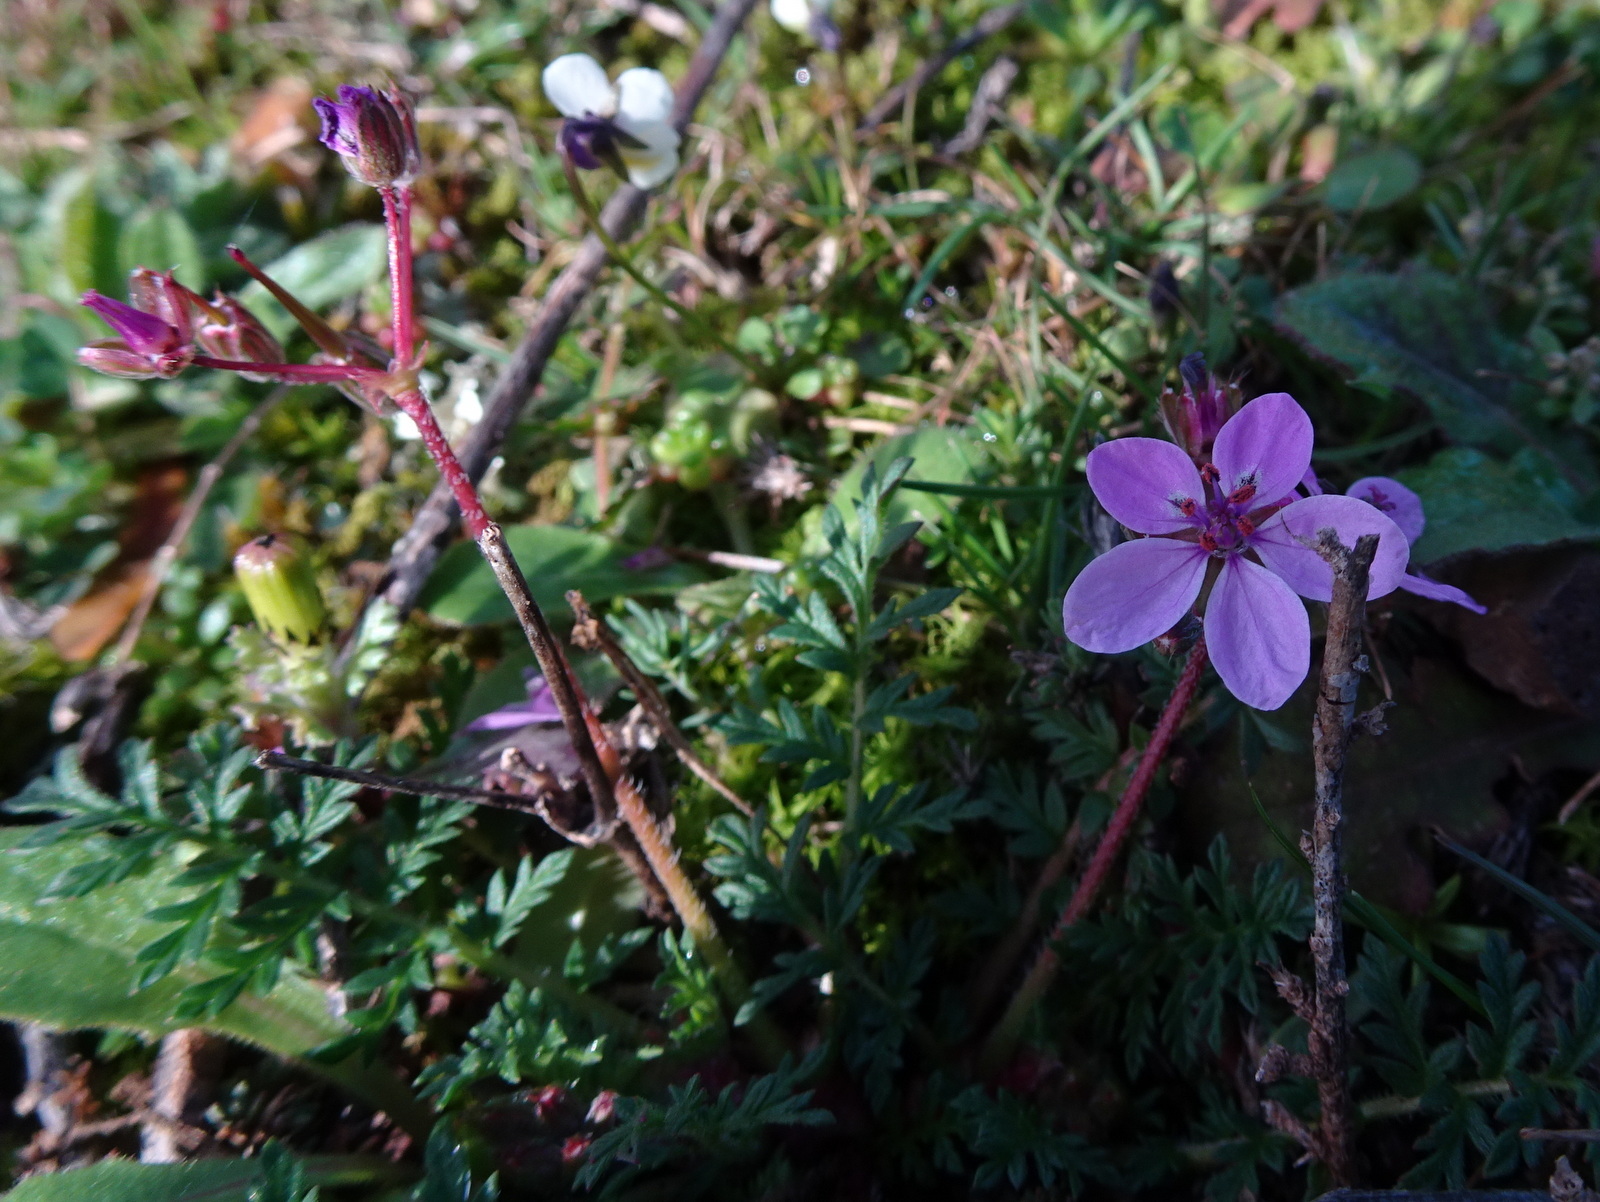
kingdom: Plantae
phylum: Tracheophyta
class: Magnoliopsida
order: Geraniales
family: Geraniaceae
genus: Erodium
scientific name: Erodium cicutarium
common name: Common stork's-bill
